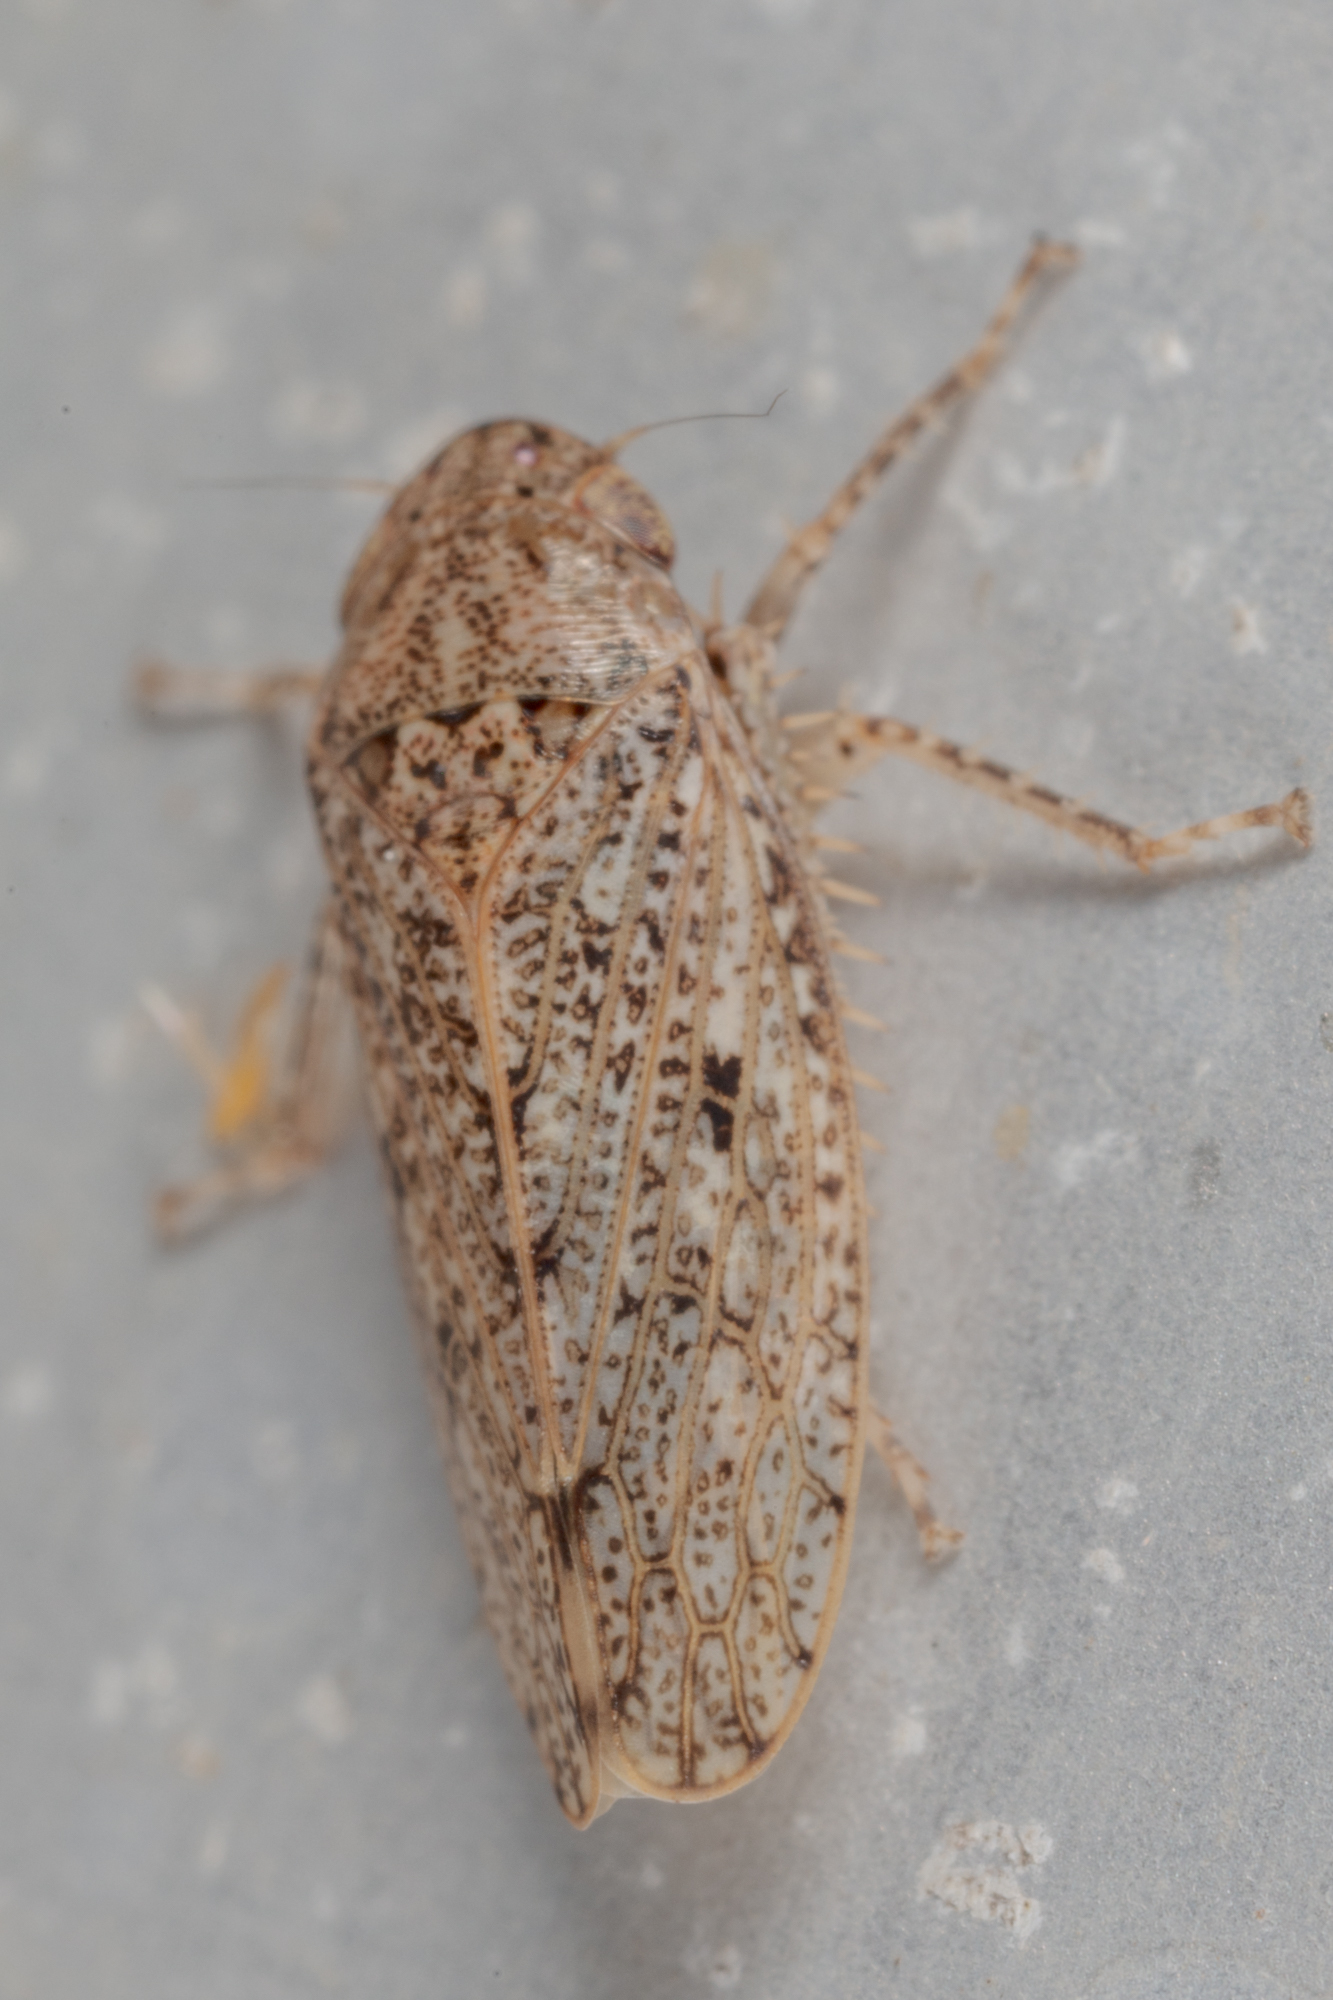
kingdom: Animalia
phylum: Arthropoda
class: Insecta
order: Hemiptera
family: Cicadellidae
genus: Curtara
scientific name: Curtara insularis
